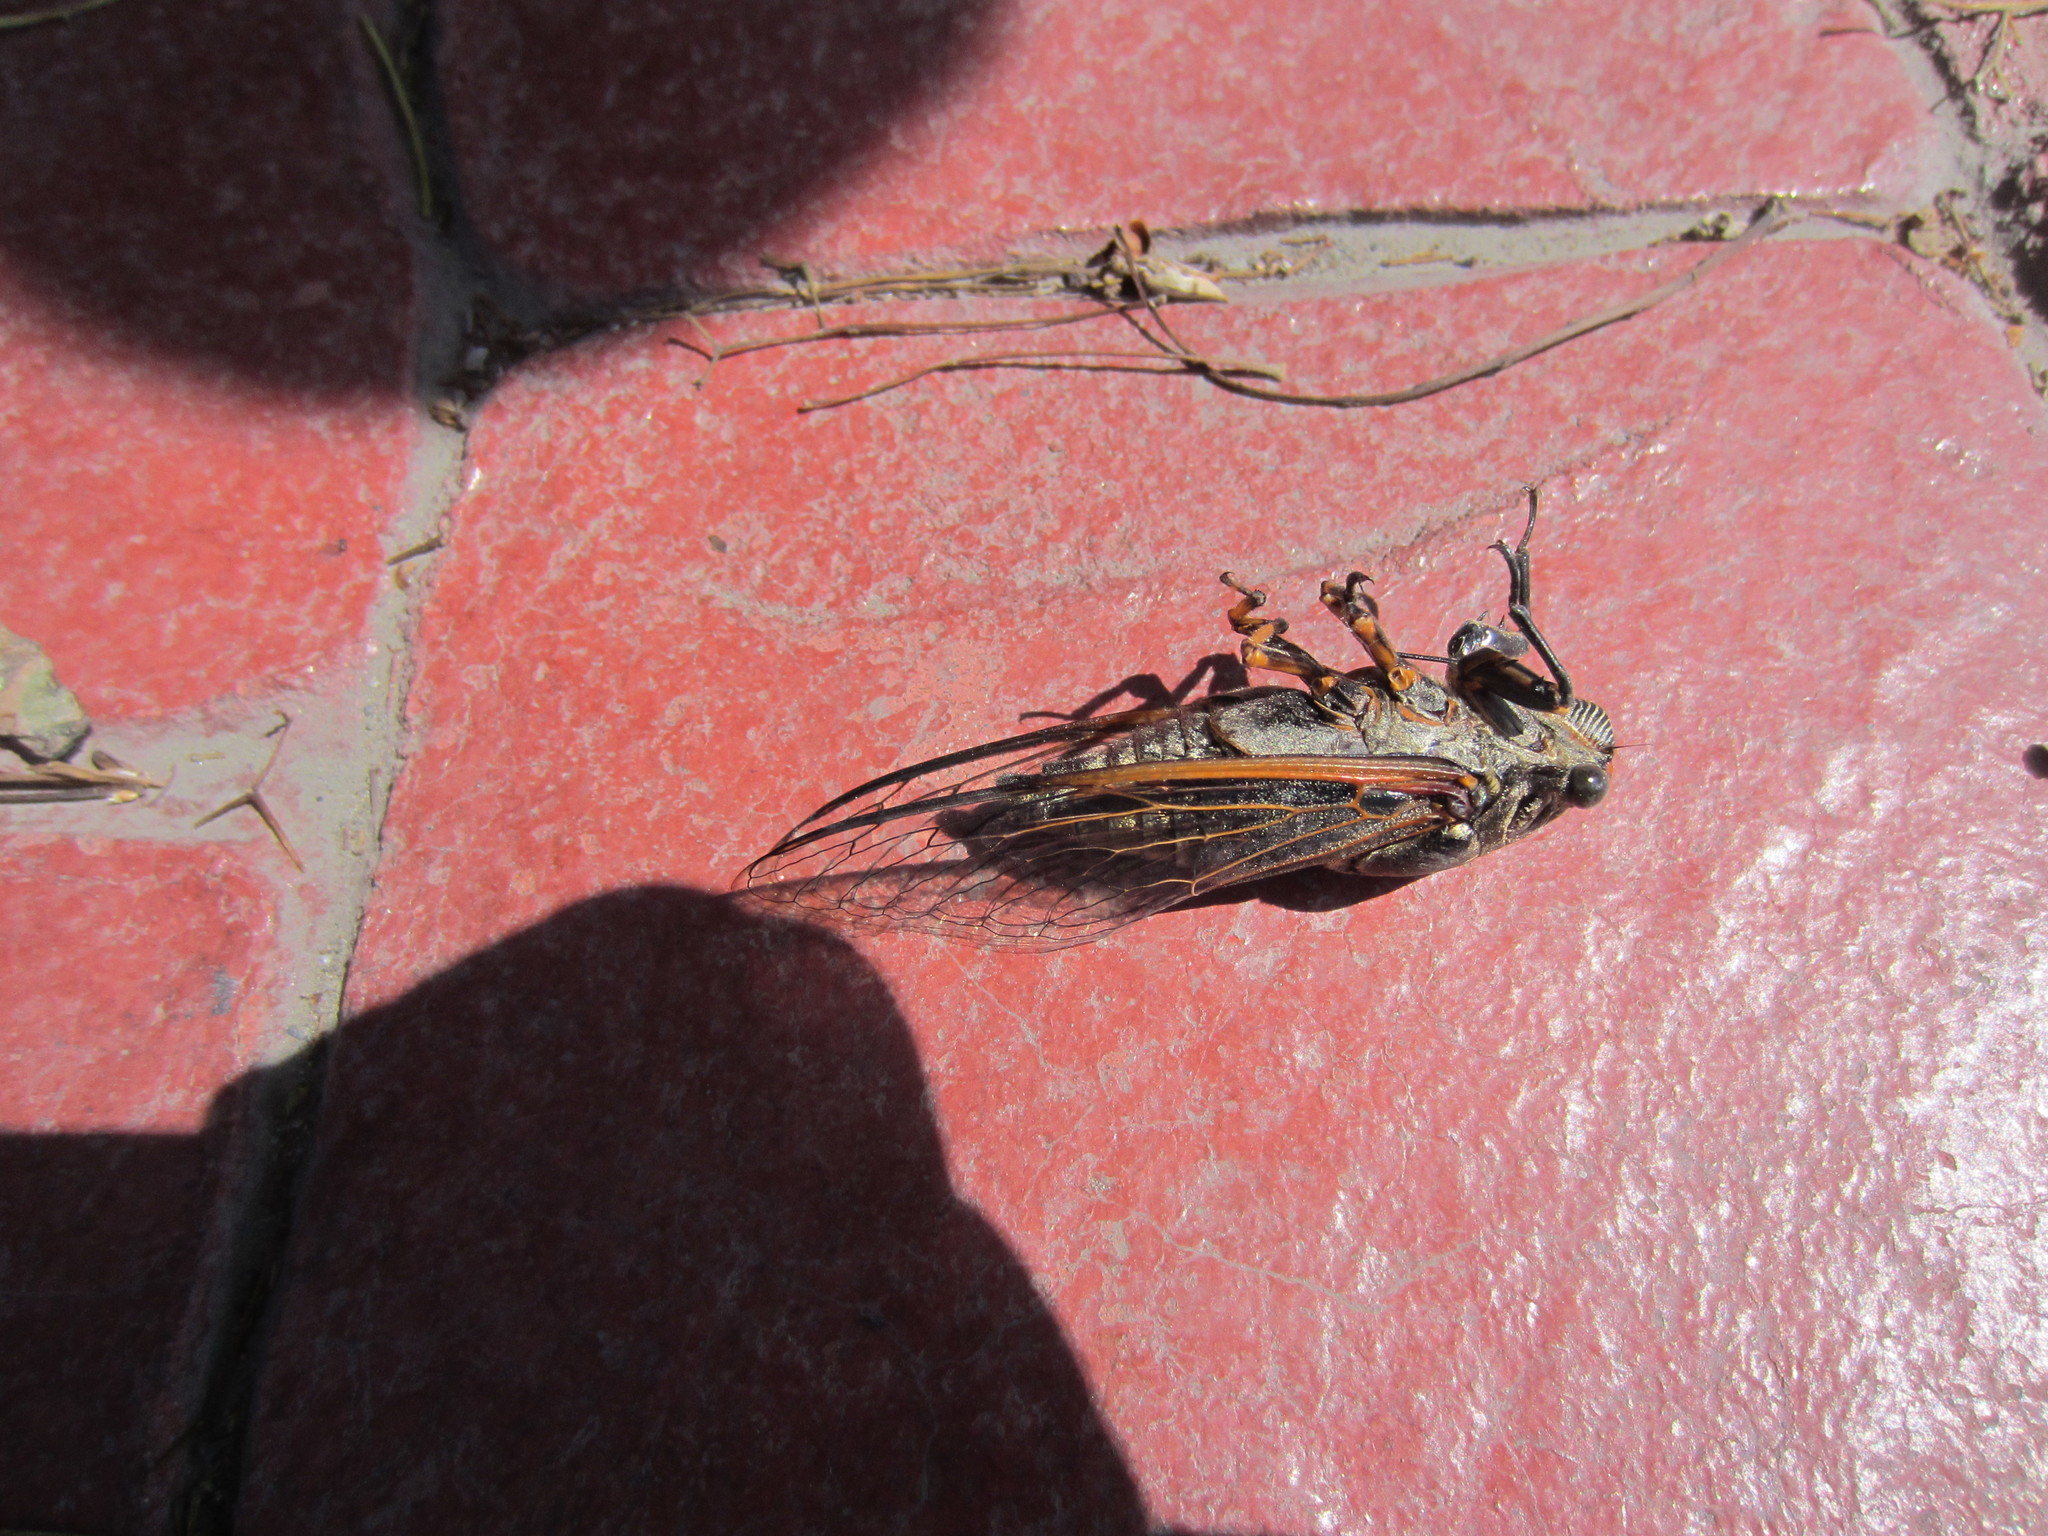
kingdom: Animalia
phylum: Arthropoda
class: Insecta
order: Hemiptera
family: Cicadidae
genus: Cryptotympana
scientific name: Cryptotympana atrata
